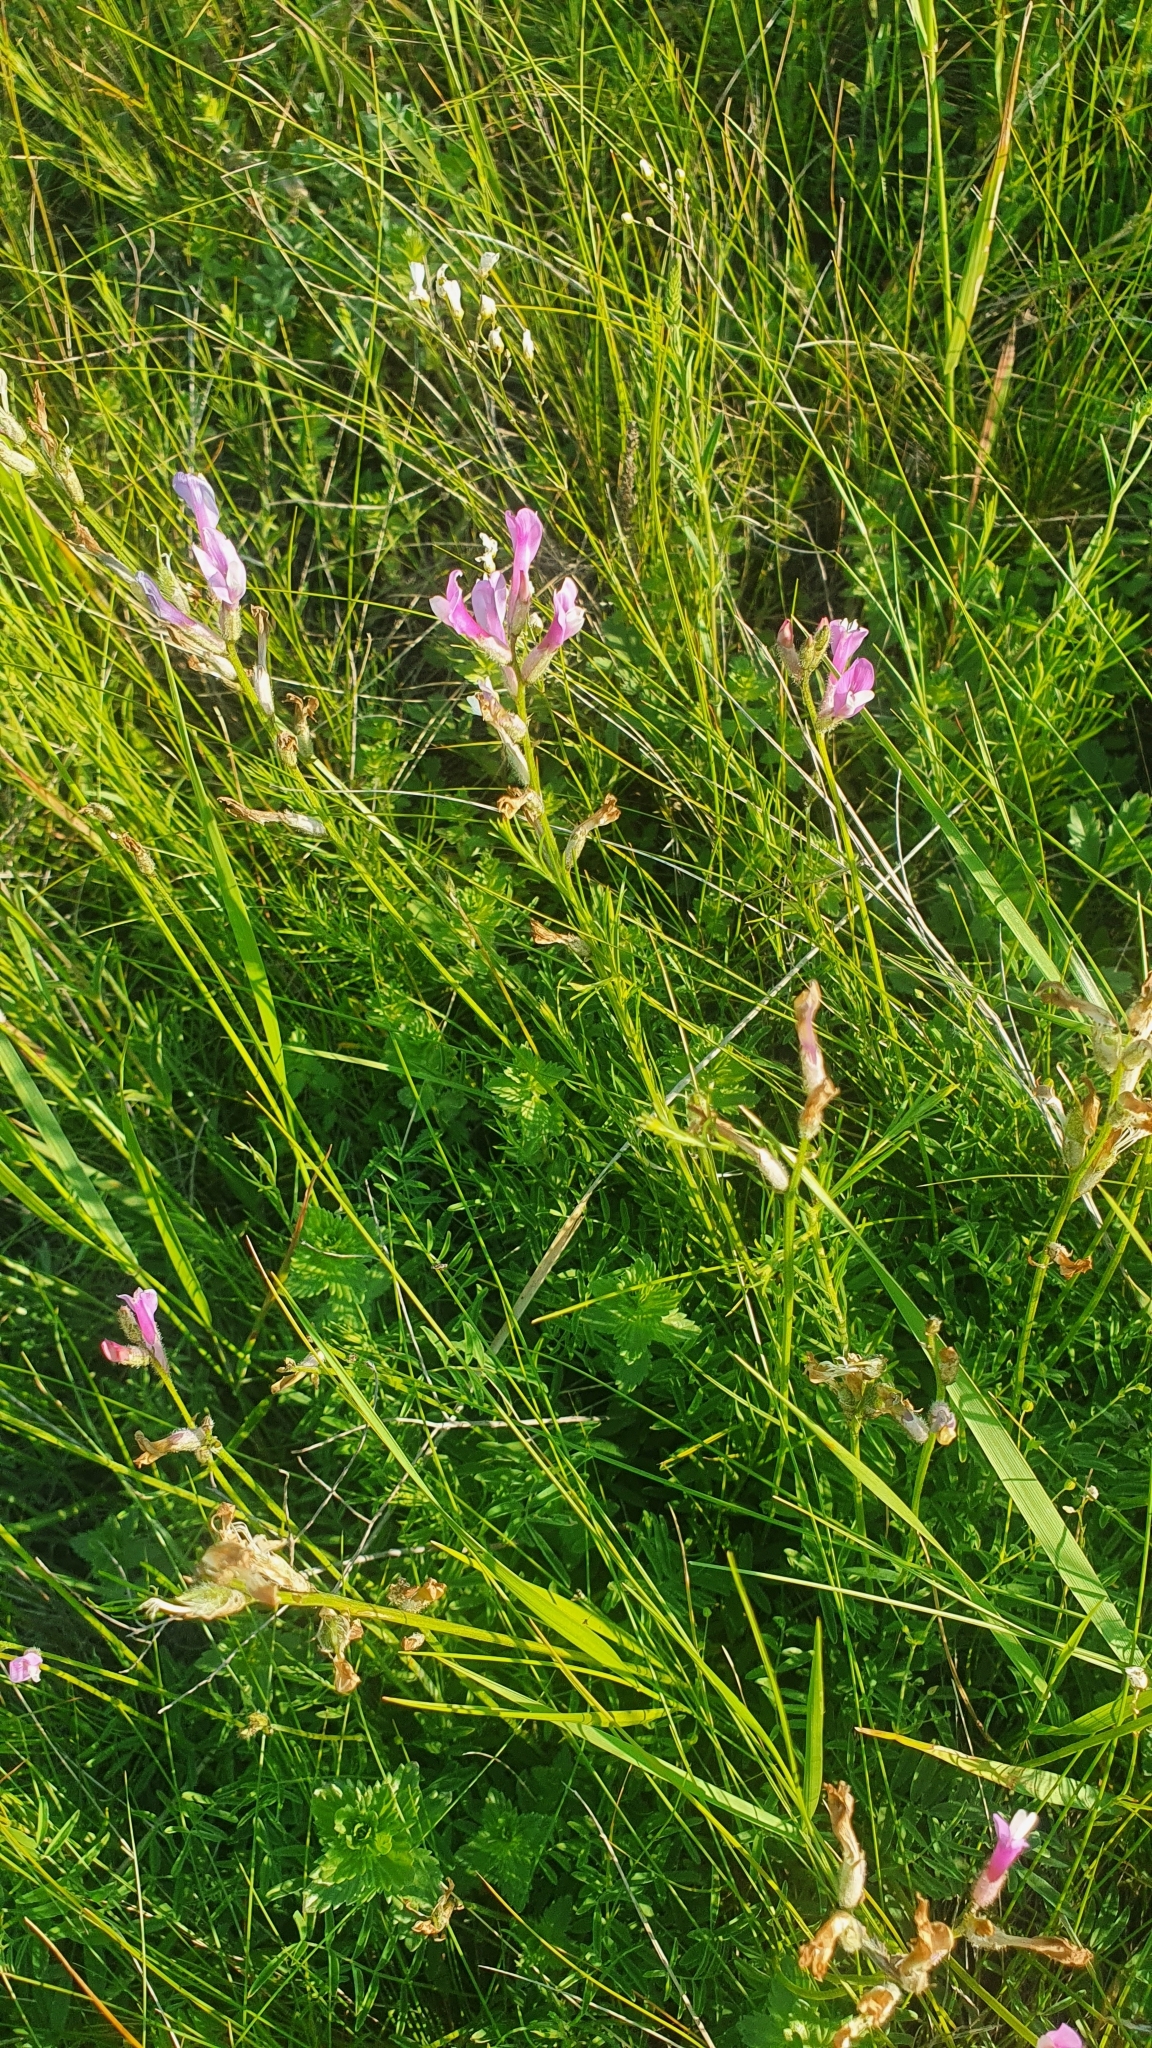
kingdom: Plantae
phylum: Tracheophyta
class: Magnoliopsida
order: Fabales
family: Fabaceae
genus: Astragalus
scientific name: Astragalus macropus
